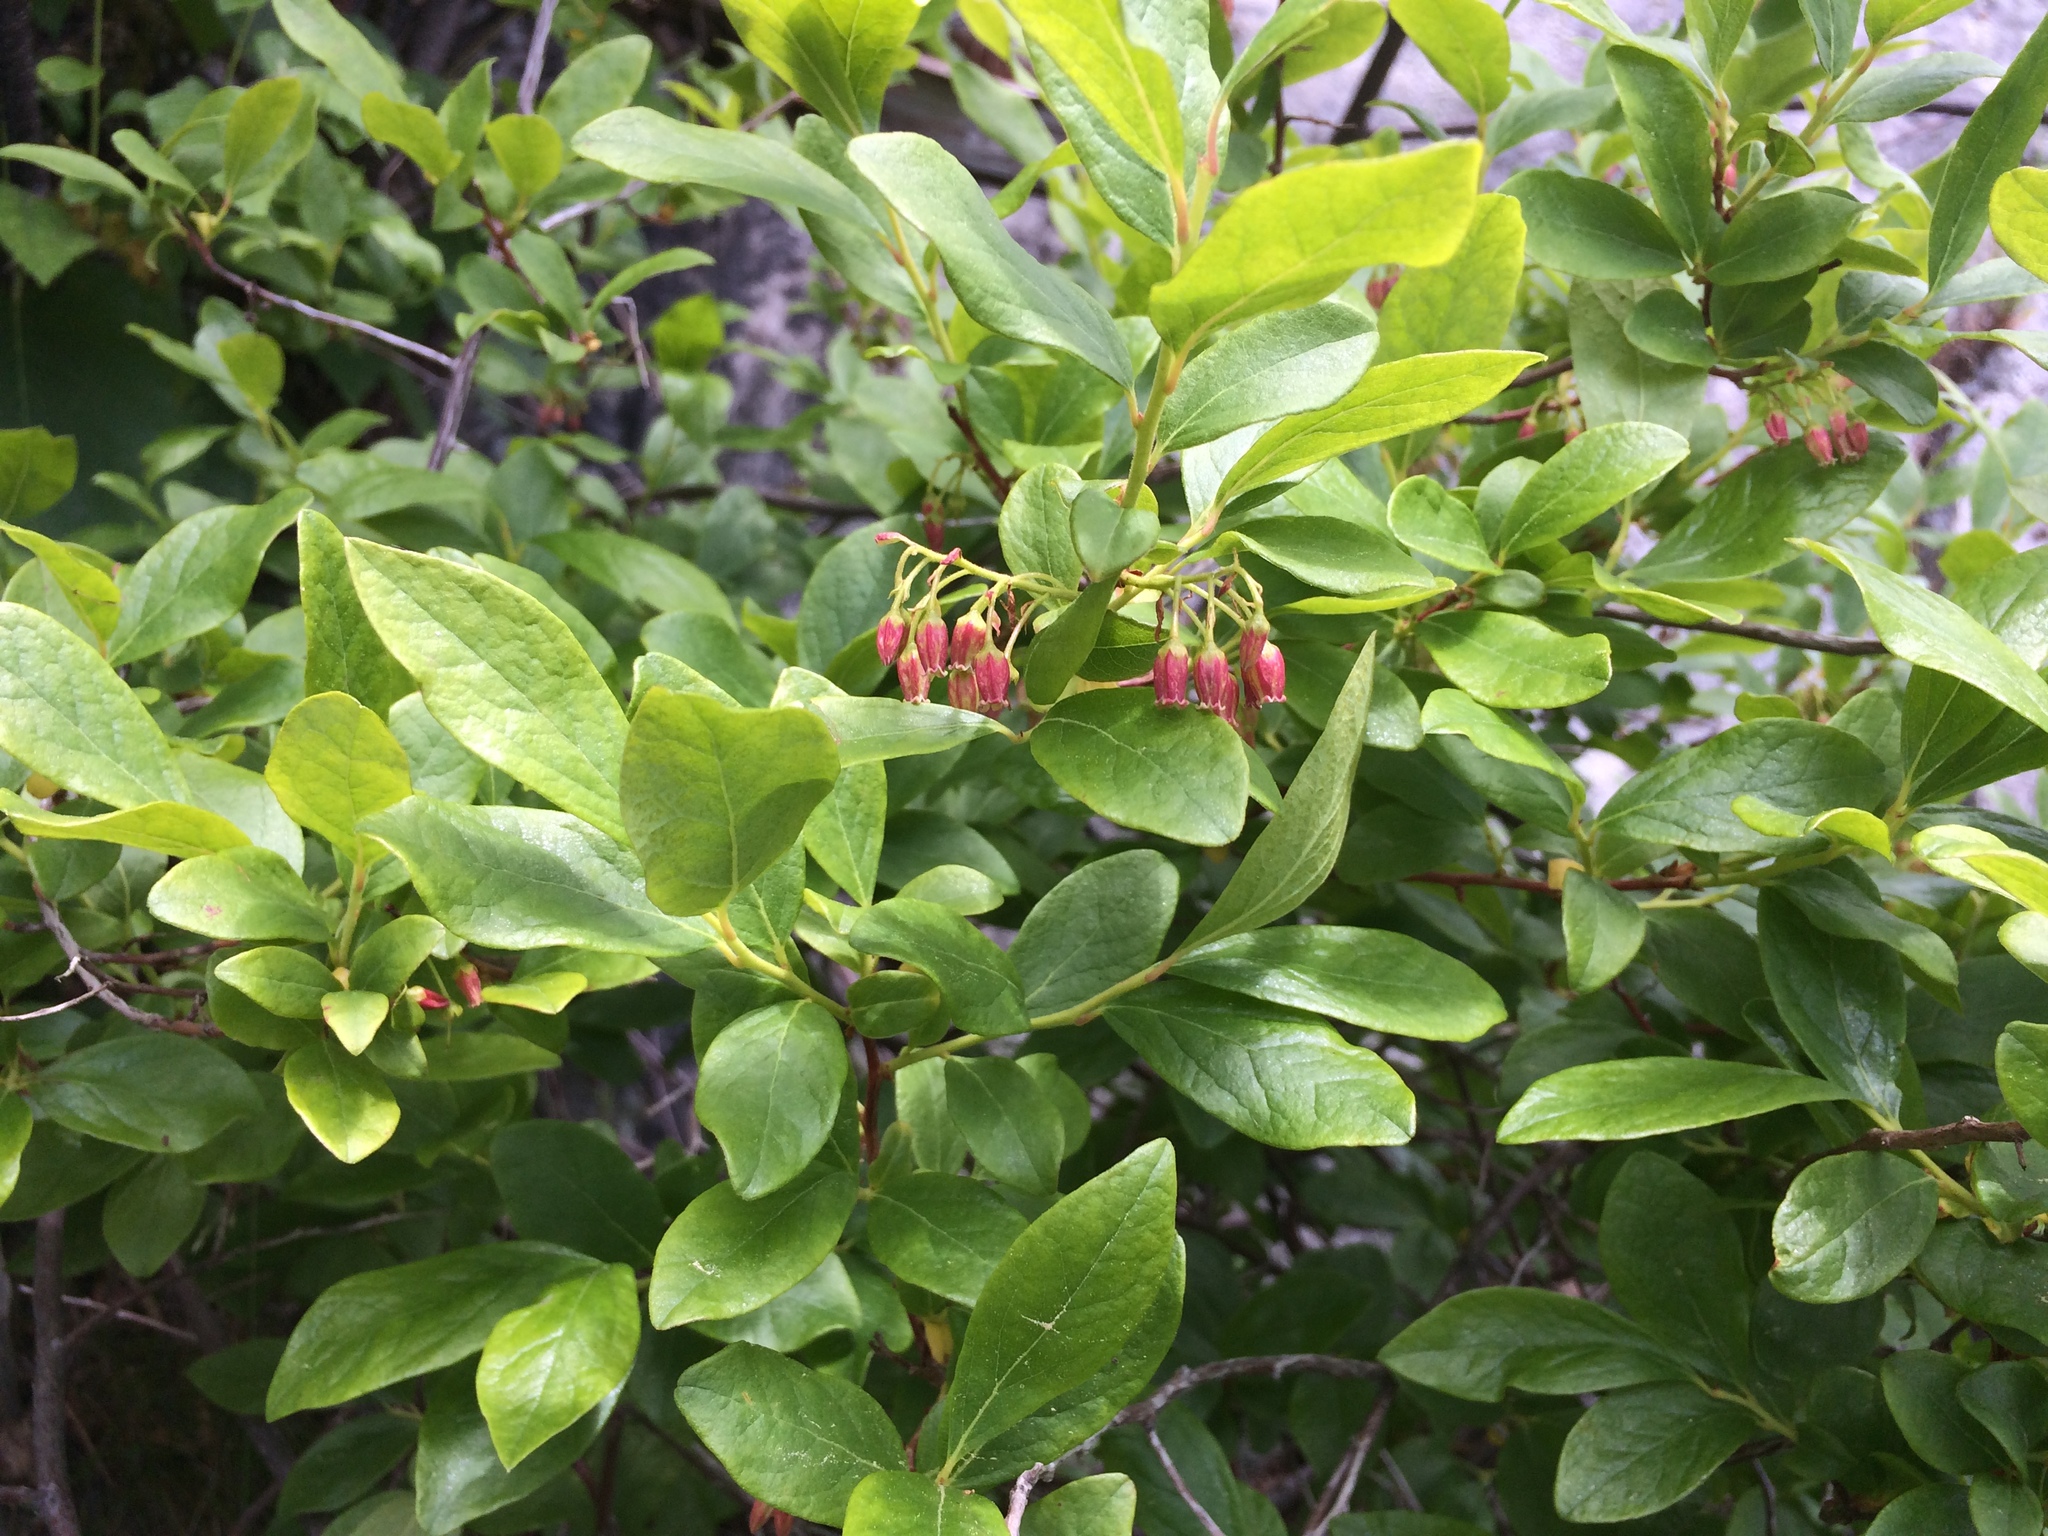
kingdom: Plantae
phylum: Tracheophyta
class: Magnoliopsida
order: Ericales
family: Ericaceae
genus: Gaylussacia
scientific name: Gaylussacia baccata
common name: Black huckleberry
